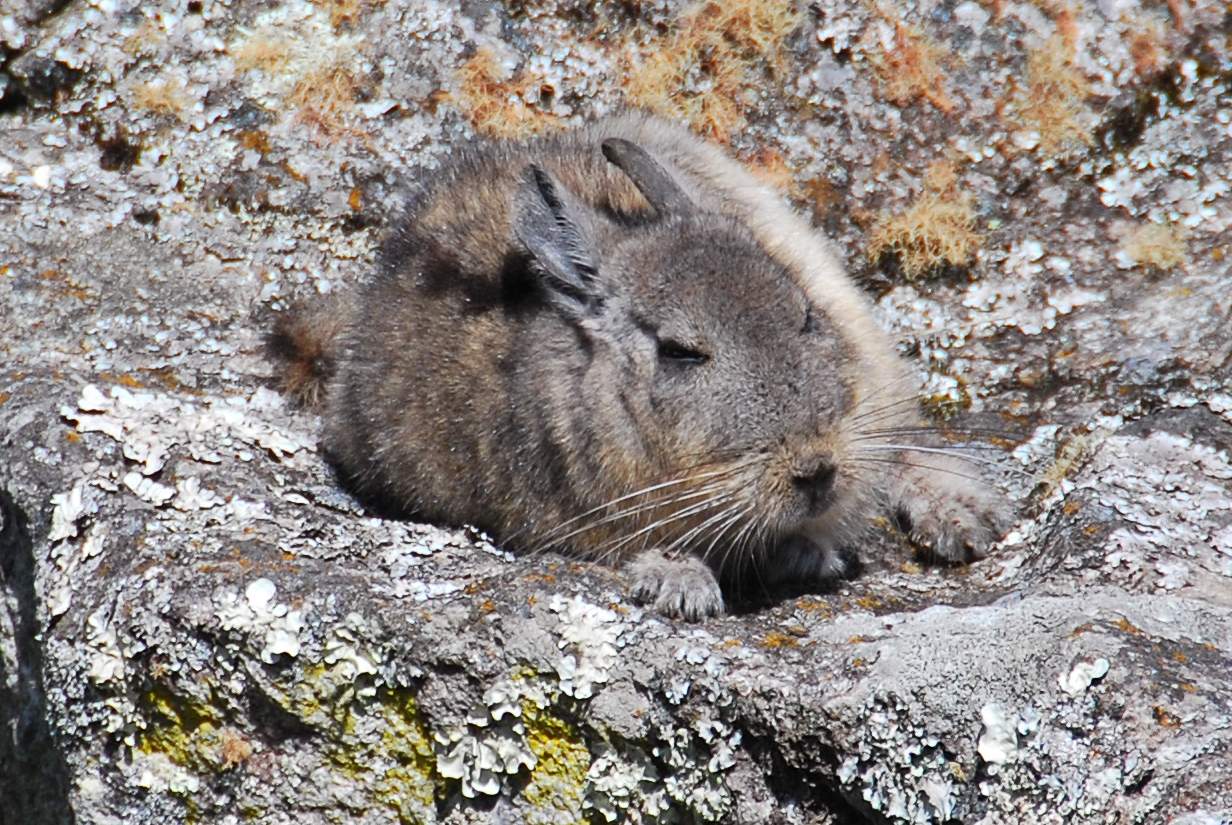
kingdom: Animalia
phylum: Chordata
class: Mammalia
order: Rodentia
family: Chinchillidae
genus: Lagidium
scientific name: Lagidium viscacia
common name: Southern viscacha
